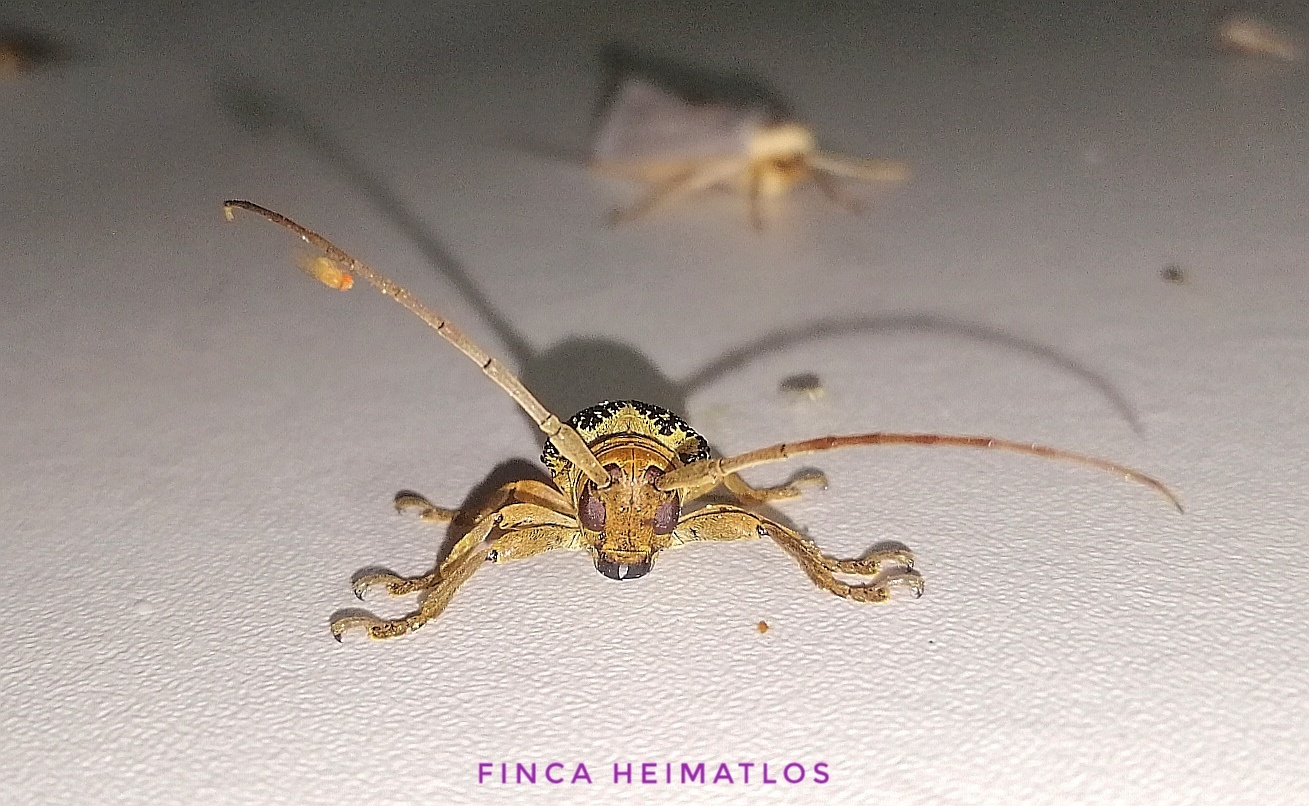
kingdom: Animalia
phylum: Arthropoda
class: Insecta
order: Coleoptera
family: Cerambycidae
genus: Oncideres
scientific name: Oncideres multicincta
